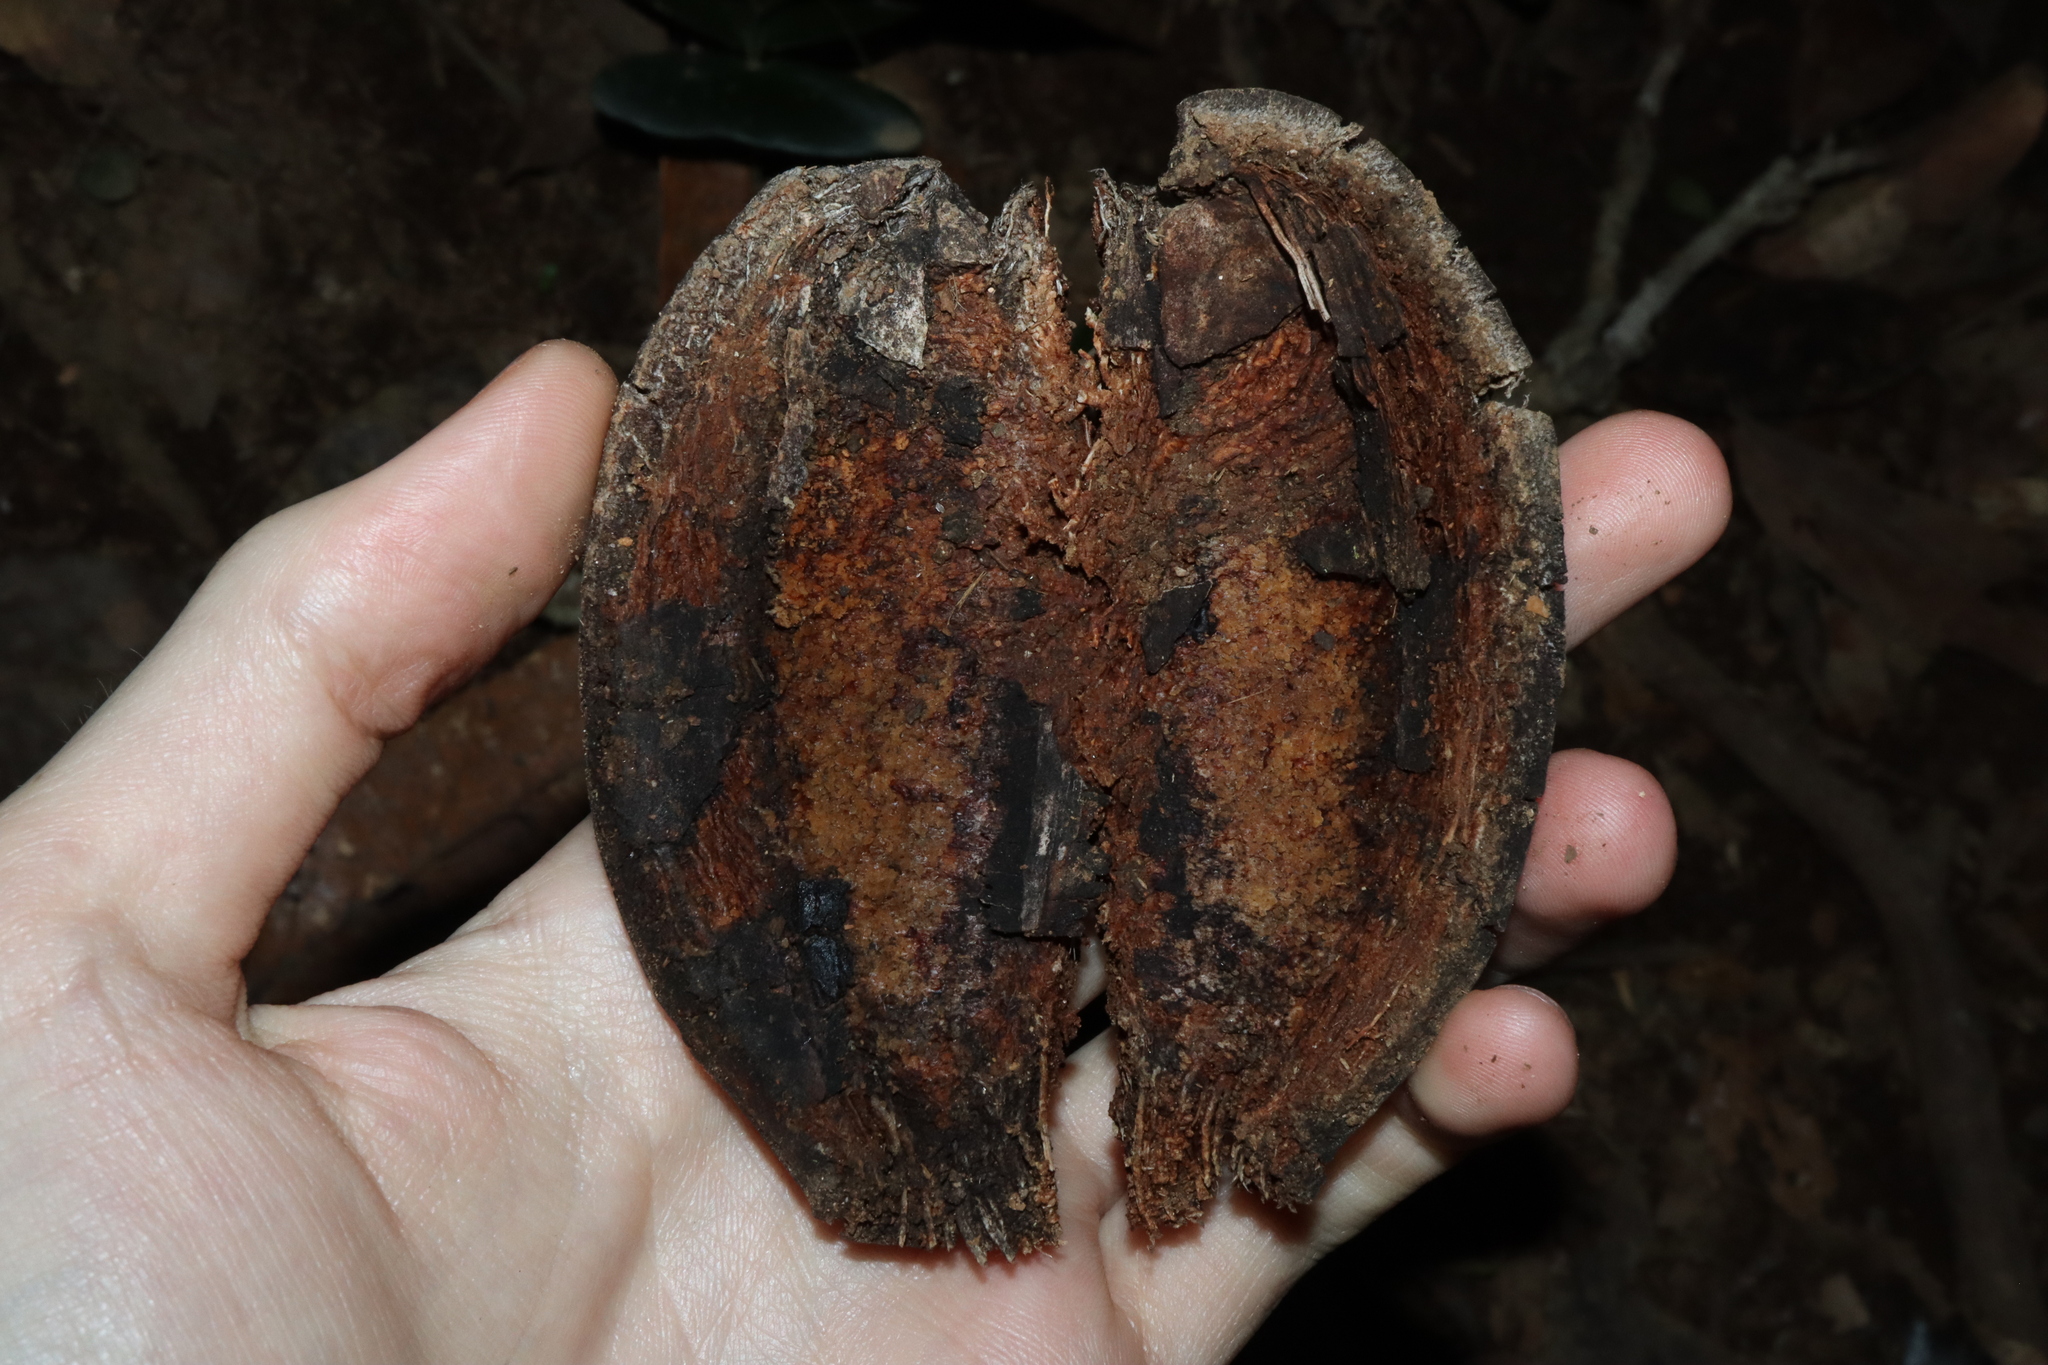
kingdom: Plantae
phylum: Tracheophyta
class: Magnoliopsida
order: Proteales
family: Proteaceae
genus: Cardwellia
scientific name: Cardwellia sublimis
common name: Bull oak
